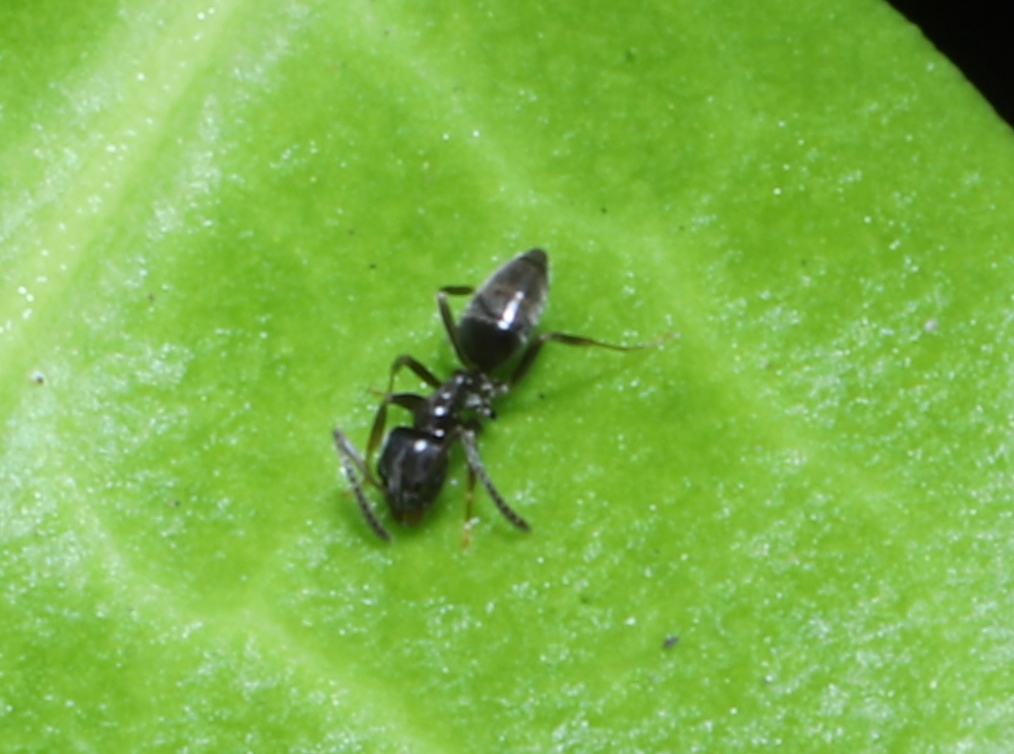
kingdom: Animalia
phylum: Arthropoda
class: Insecta
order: Hymenoptera
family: Formicidae
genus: Tapinoma
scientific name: Tapinoma sessile
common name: Odorous house ant
